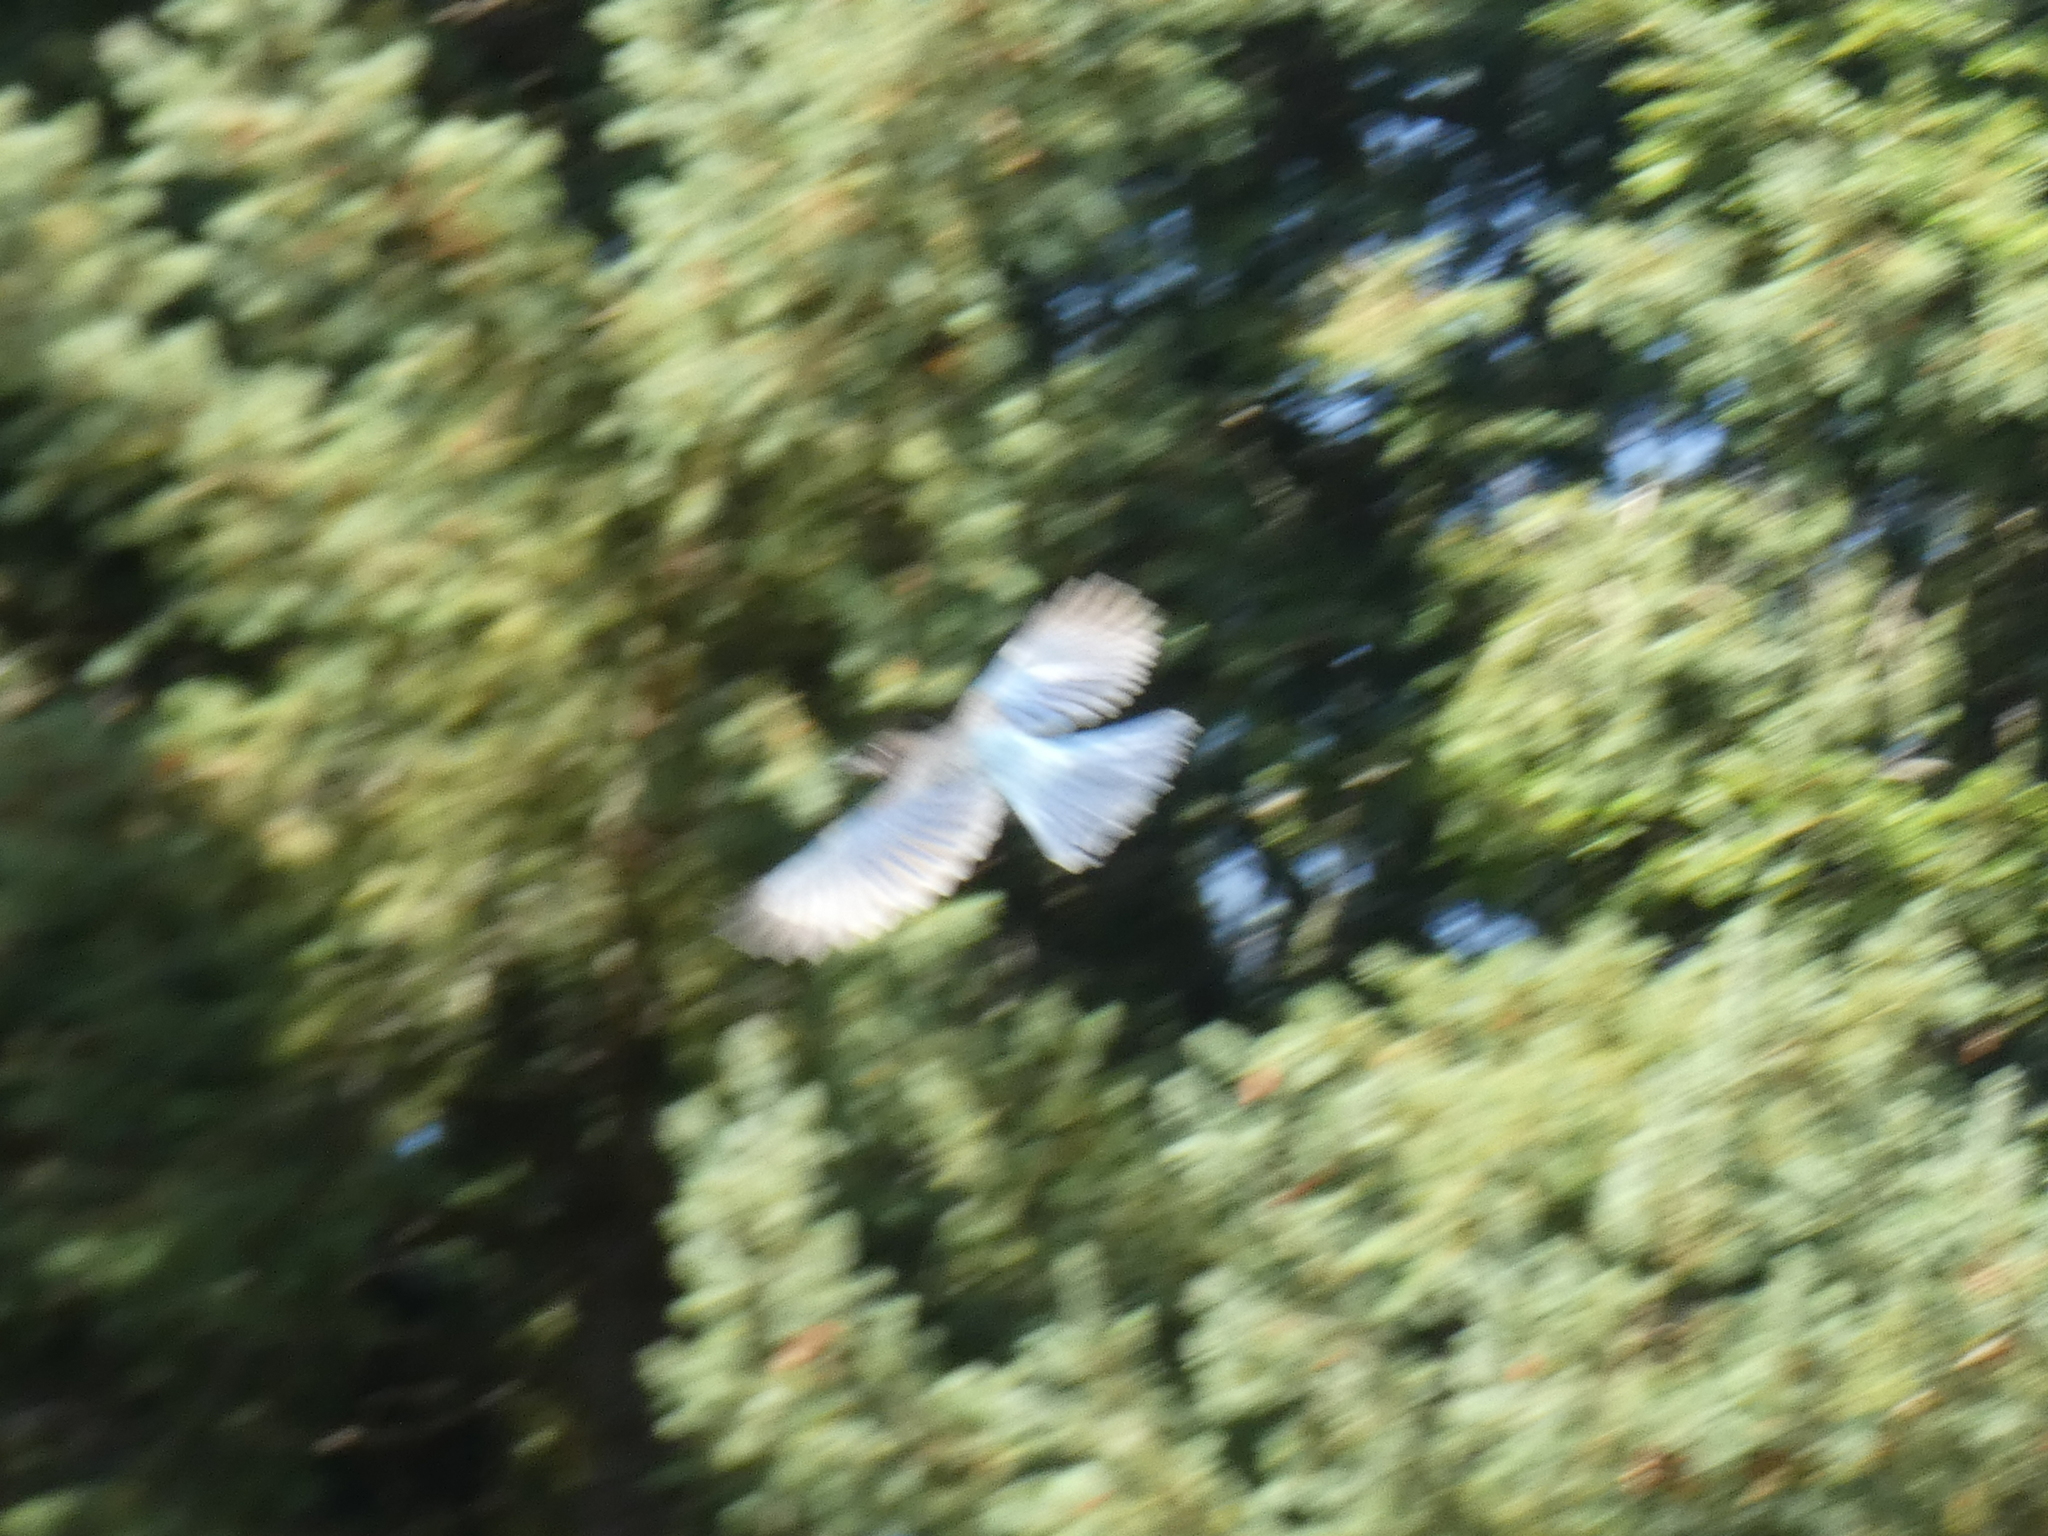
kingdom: Animalia
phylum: Chordata
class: Aves
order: Passeriformes
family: Corvidae
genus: Cyanocitta
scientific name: Cyanocitta stelleri
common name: Steller's jay
